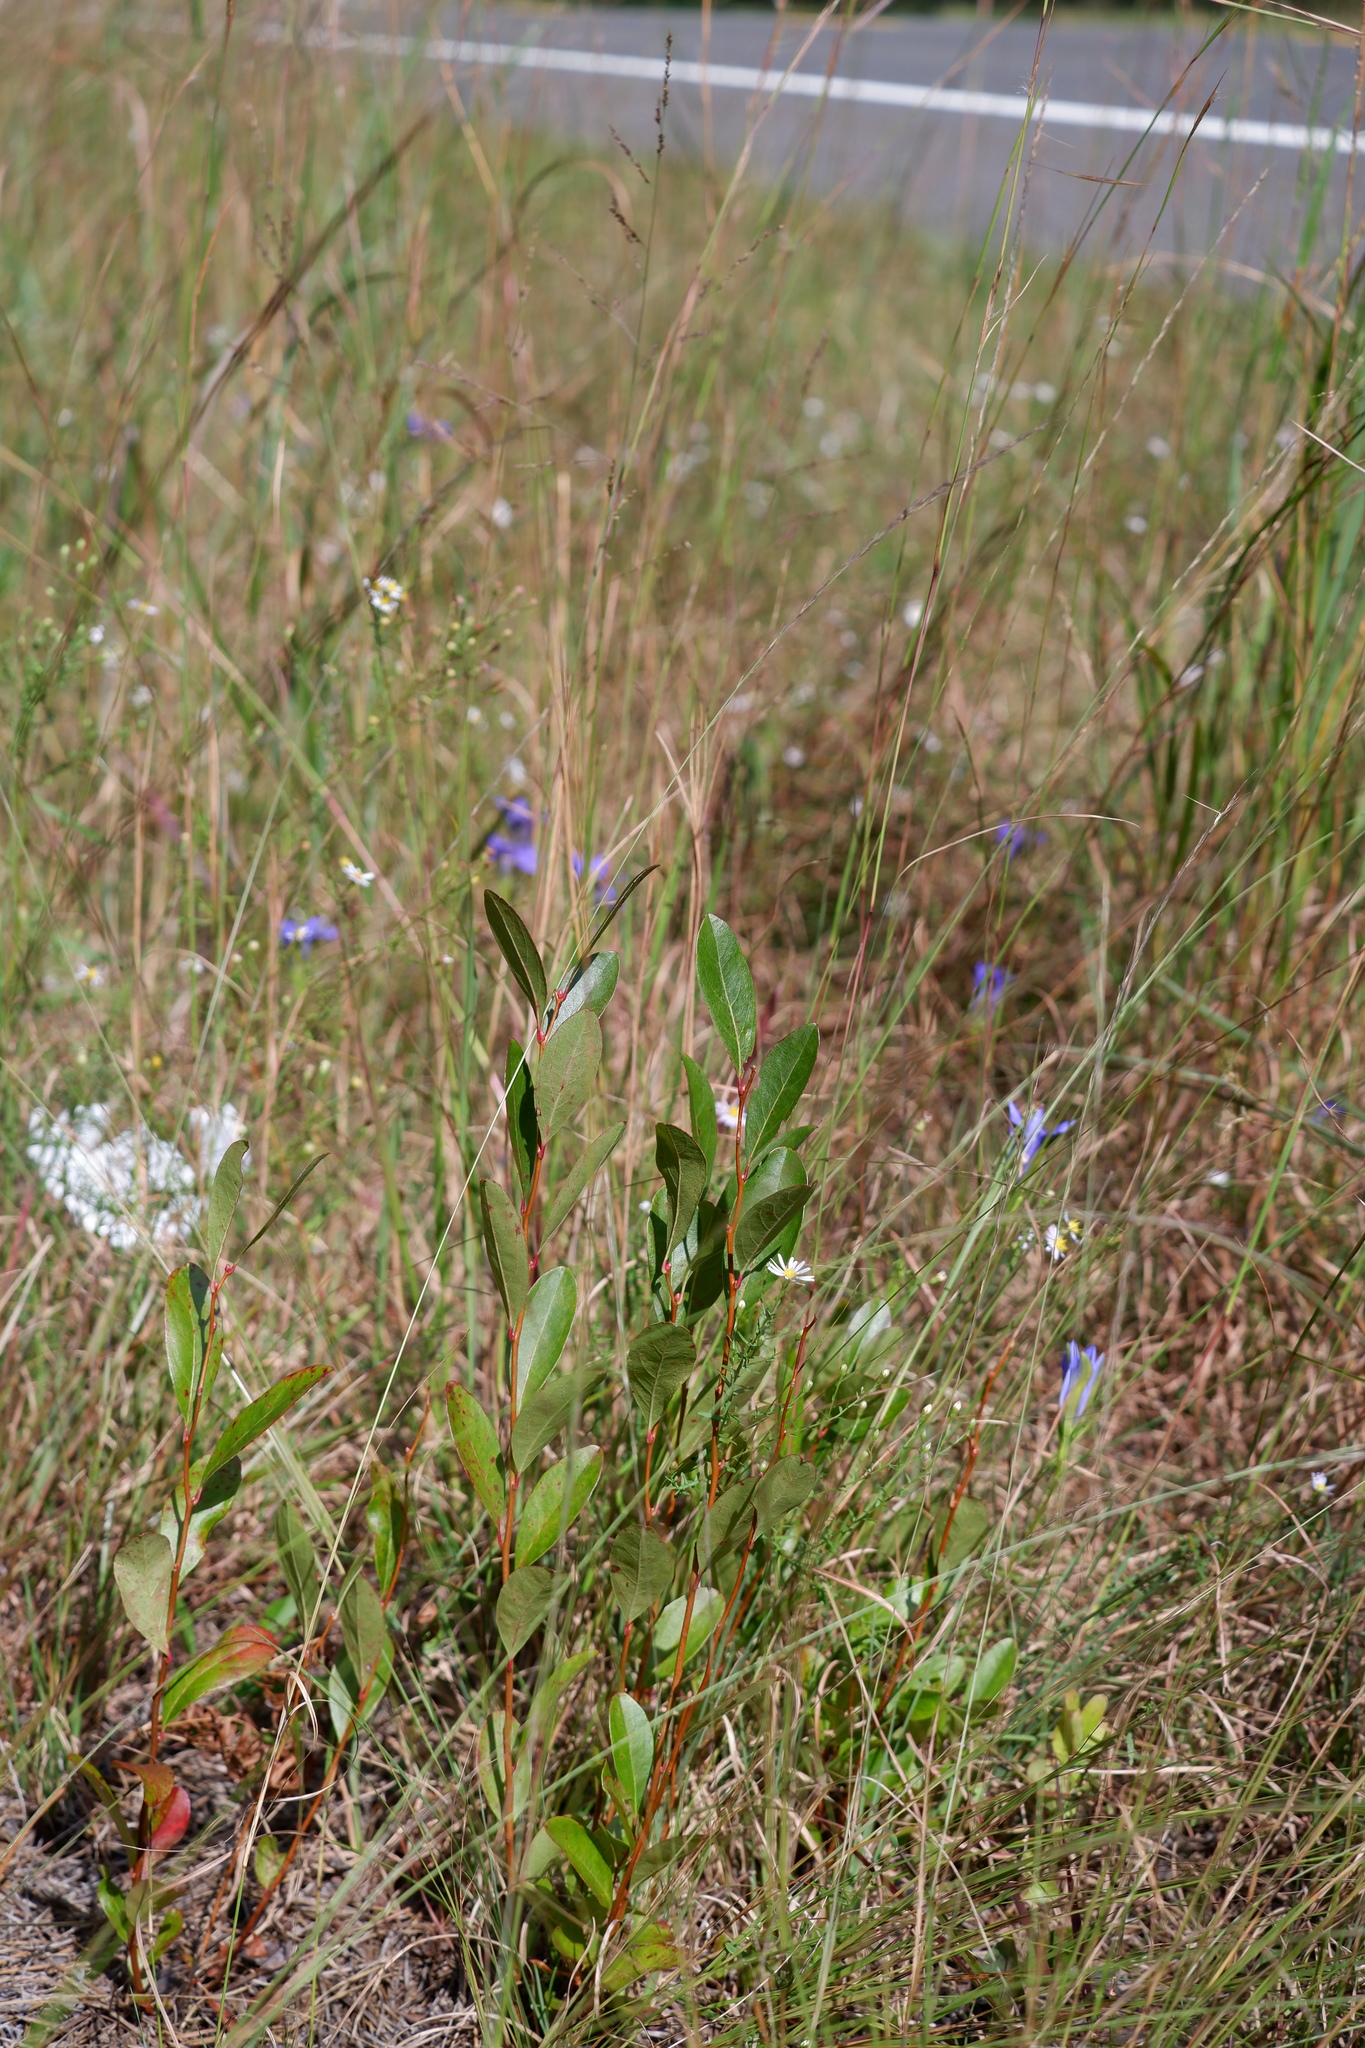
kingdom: Plantae
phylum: Tracheophyta
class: Magnoliopsida
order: Ericales
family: Ericaceae
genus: Lyonia
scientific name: Lyonia mariana
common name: Staggerbush
